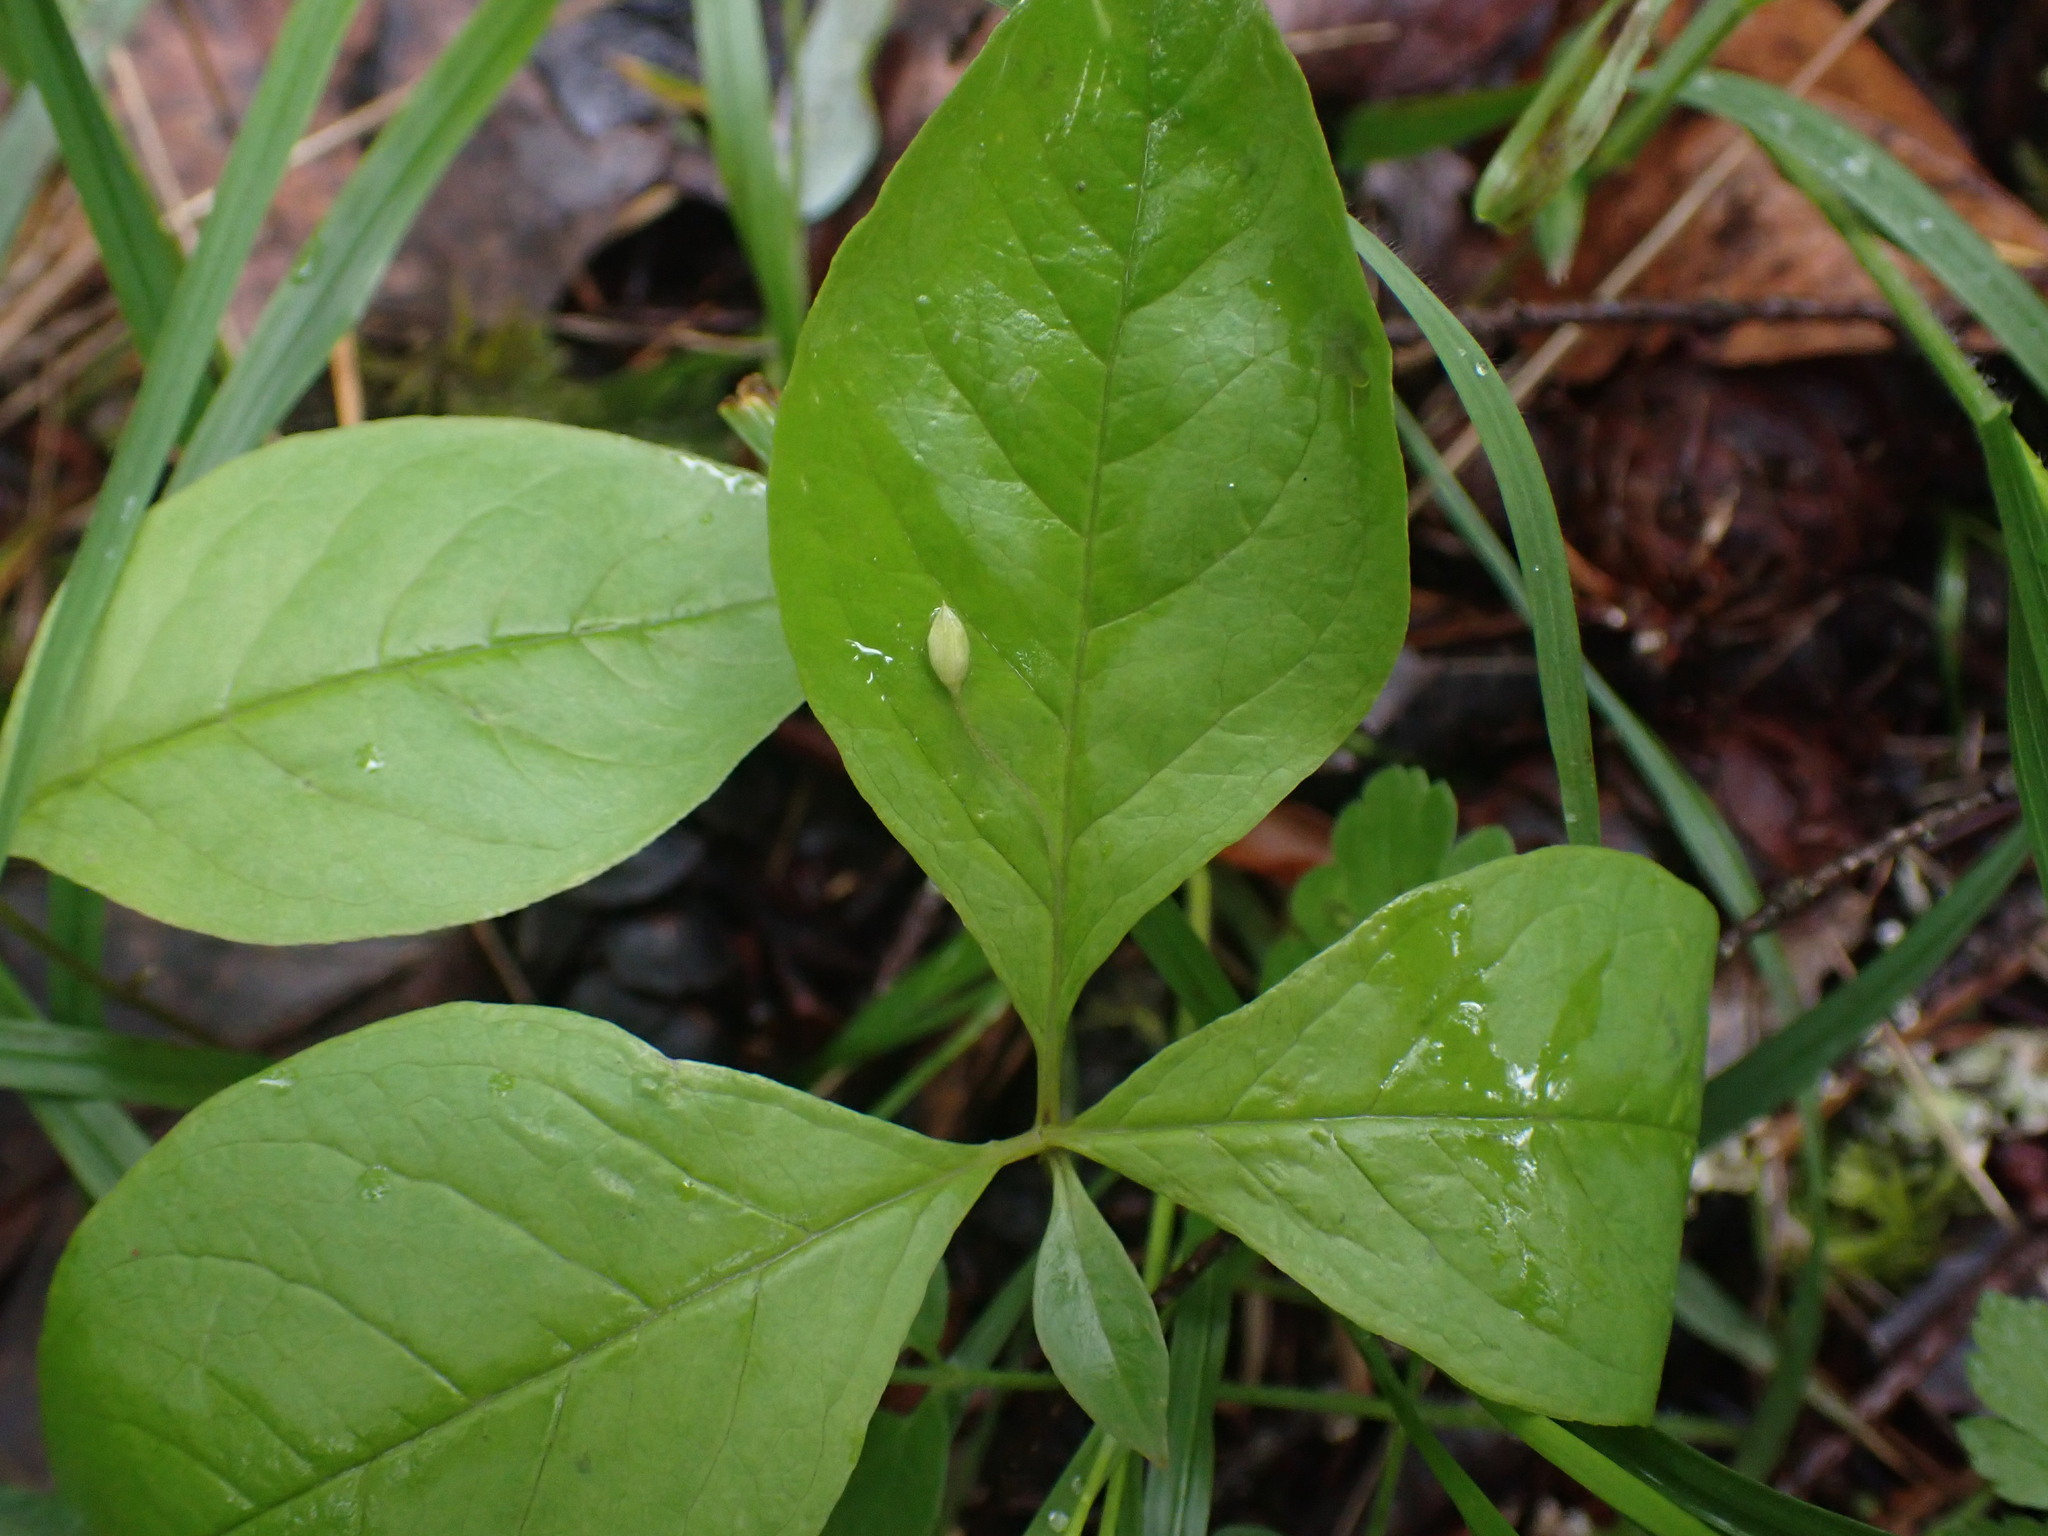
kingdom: Plantae
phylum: Tracheophyta
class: Magnoliopsida
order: Ericales
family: Primulaceae
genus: Lysimachia
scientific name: Lysimachia latifolia
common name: Pacific starflower
